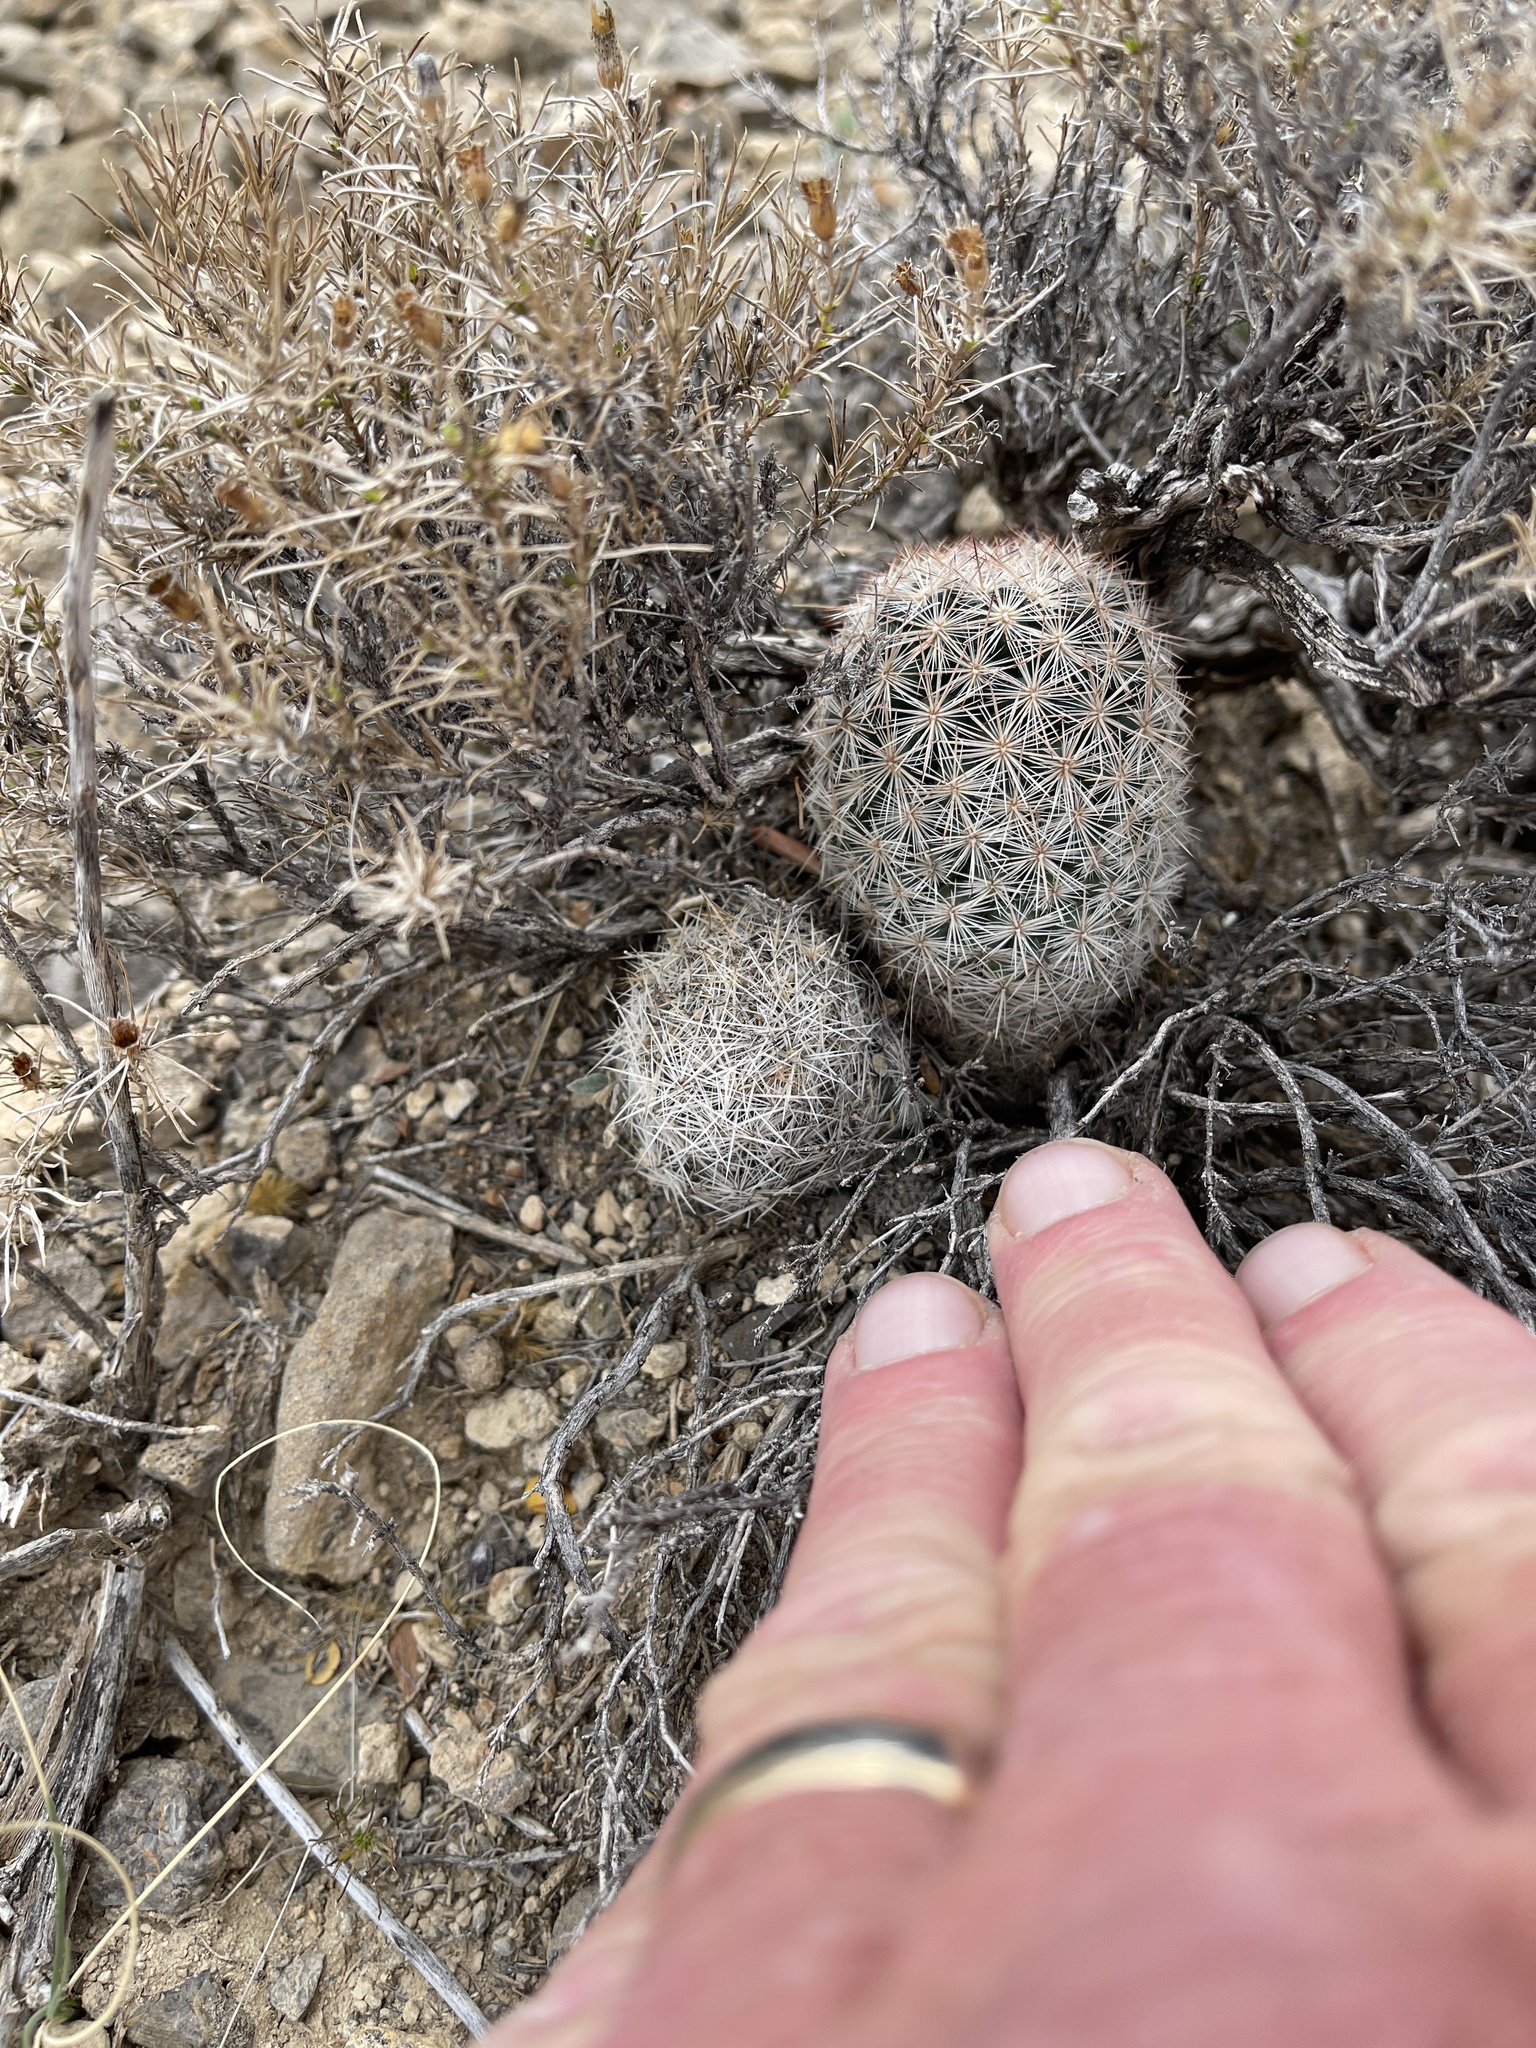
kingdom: Plantae
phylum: Tracheophyta
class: Magnoliopsida
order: Caryophyllales
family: Cactaceae
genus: Pelecyphora
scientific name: Pelecyphora vivipara
